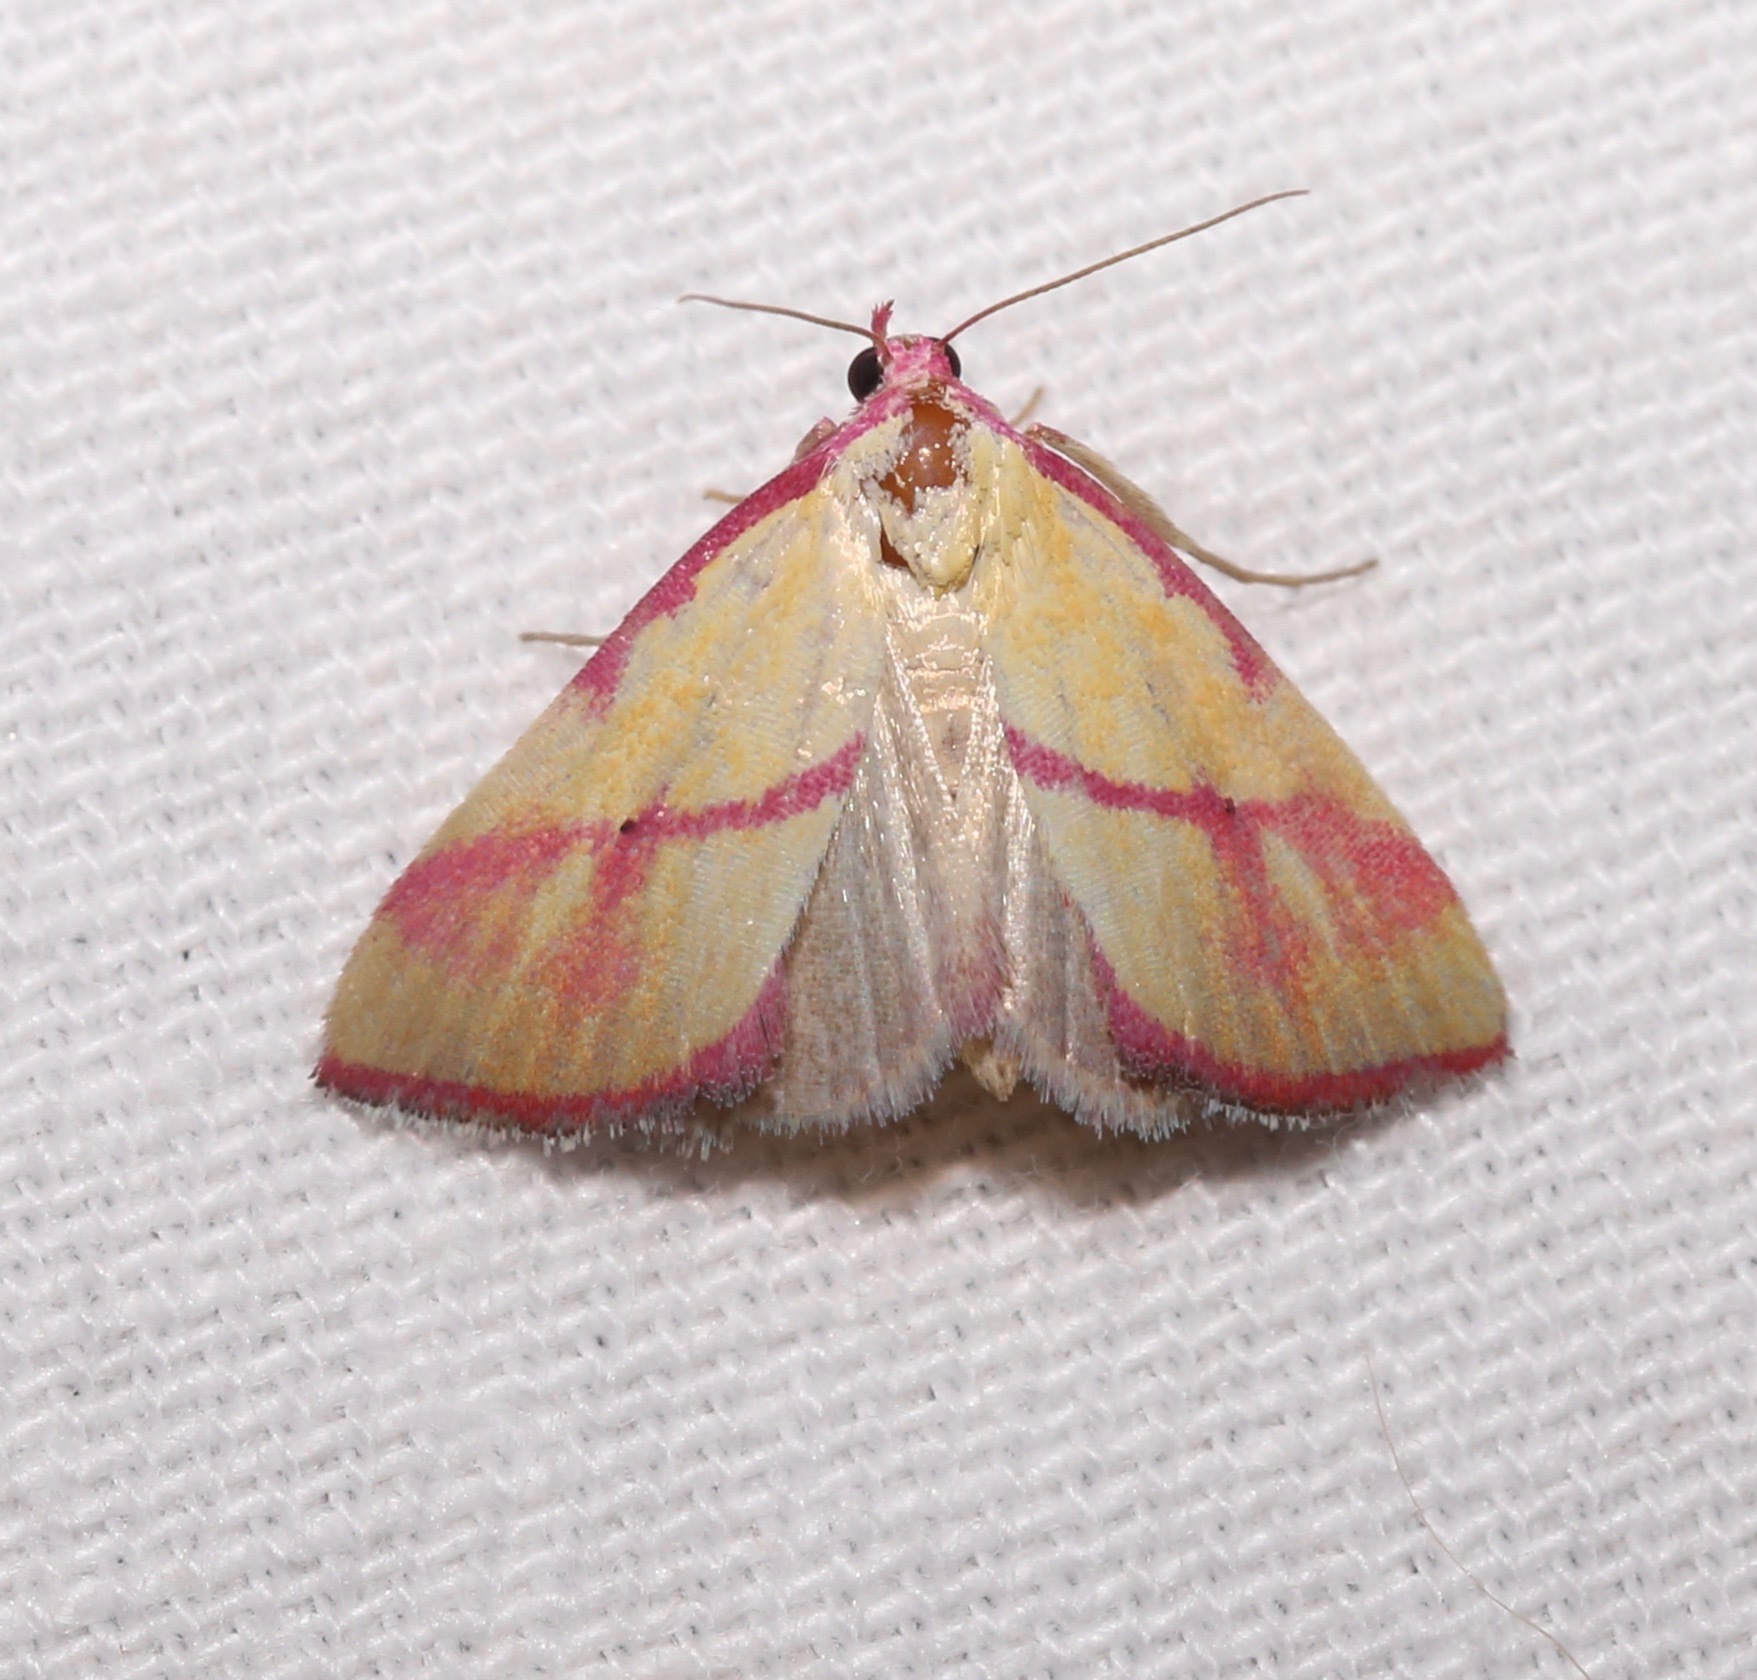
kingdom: Animalia
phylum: Arthropoda
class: Insecta
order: Lepidoptera
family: Erebidae
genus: Phytometra
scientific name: Phytometra ernestinana
